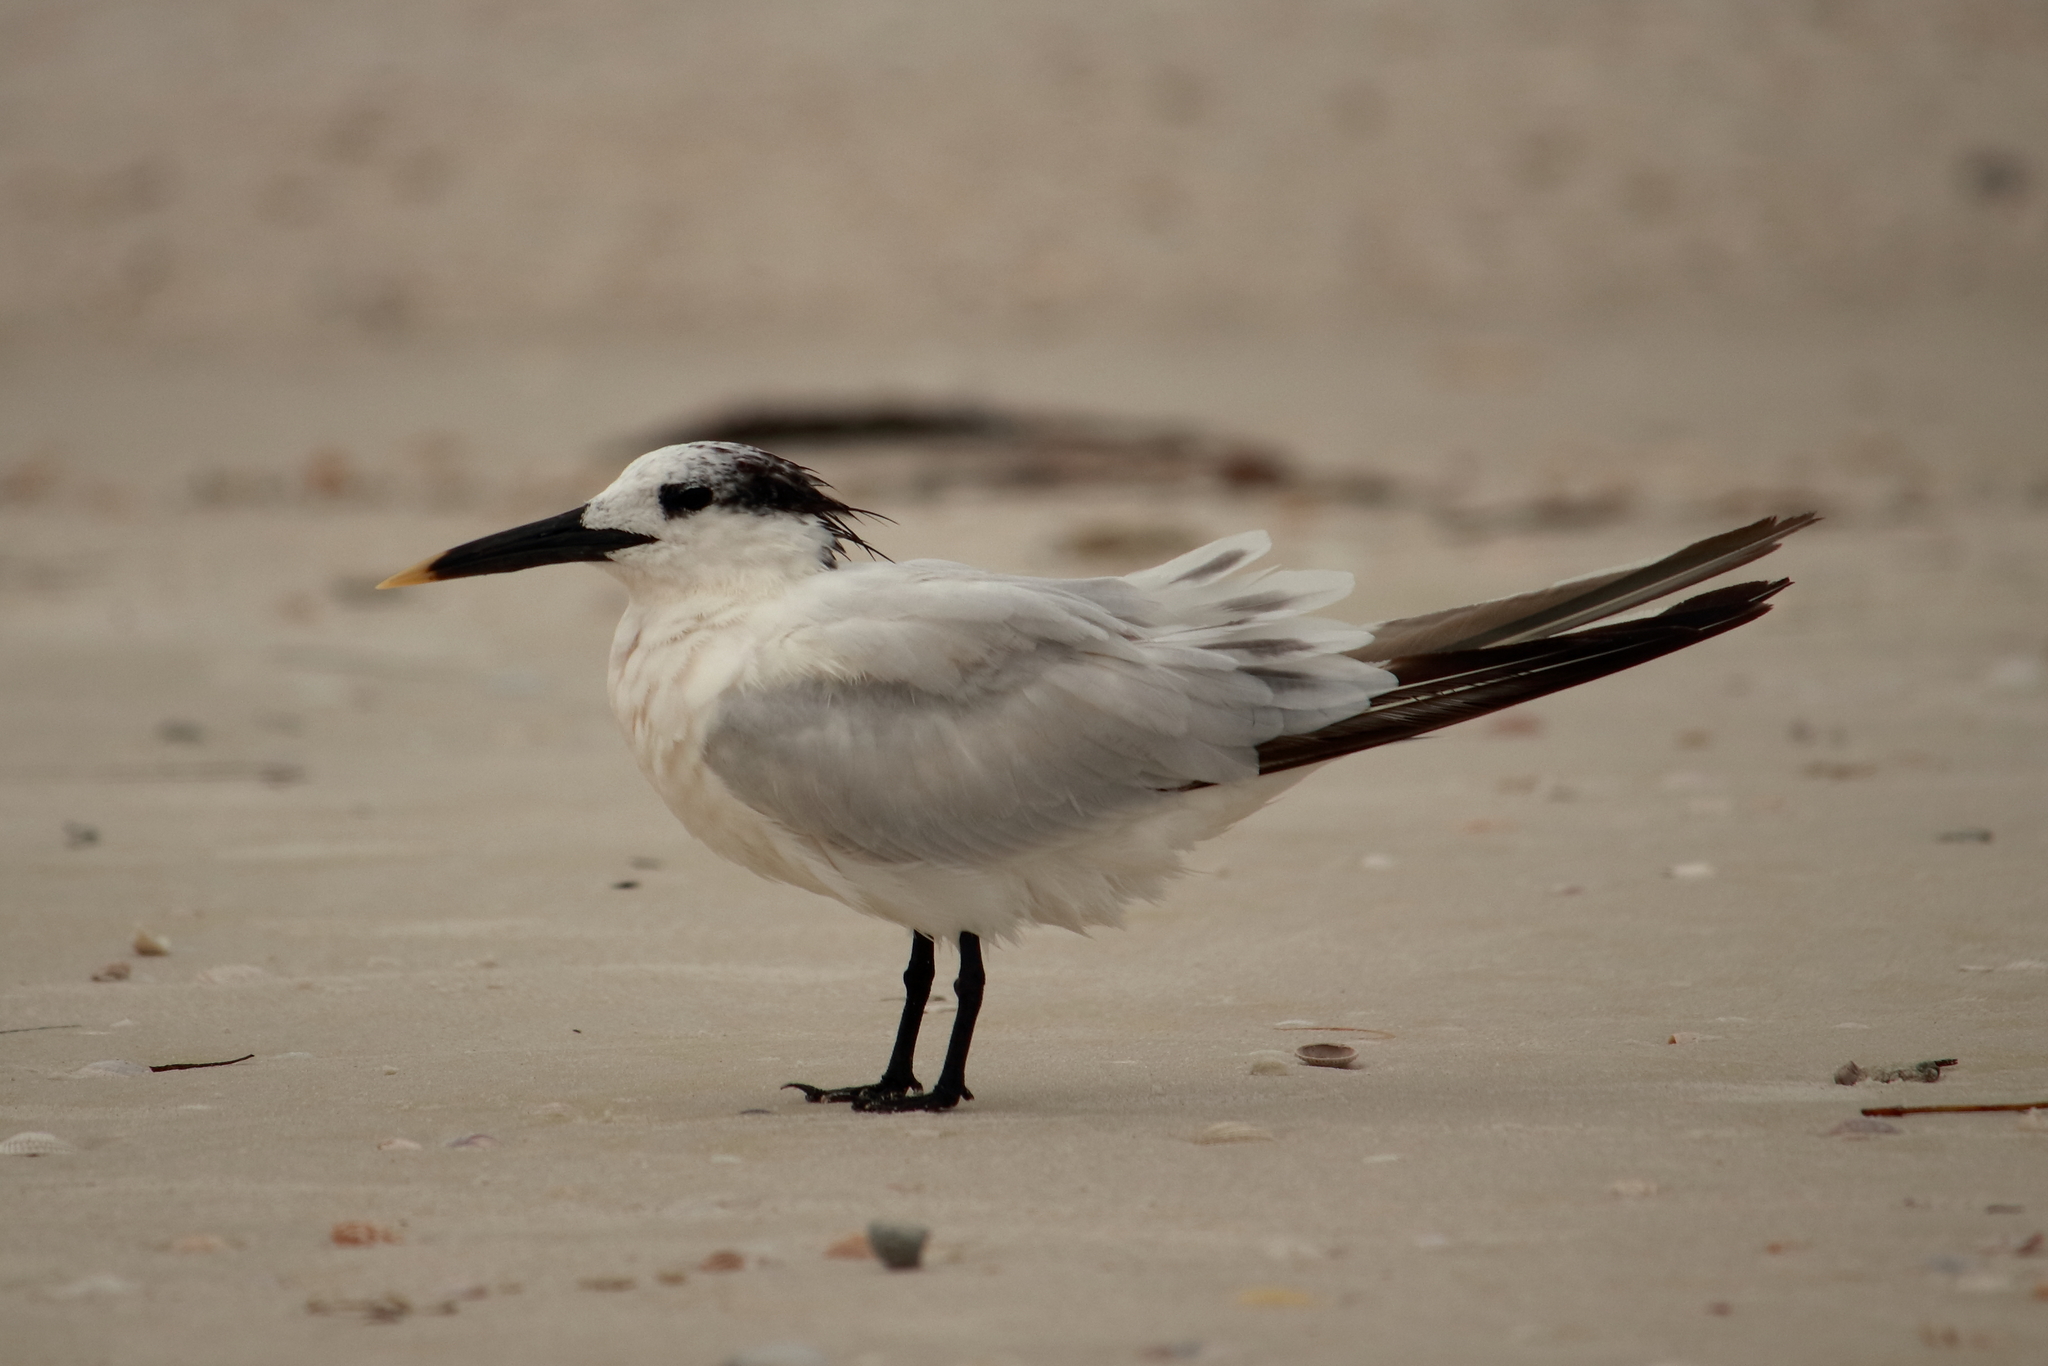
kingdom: Animalia
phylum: Chordata
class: Aves
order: Charadriiformes
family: Laridae
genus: Thalasseus
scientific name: Thalasseus sandvicensis
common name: Sandwich tern
